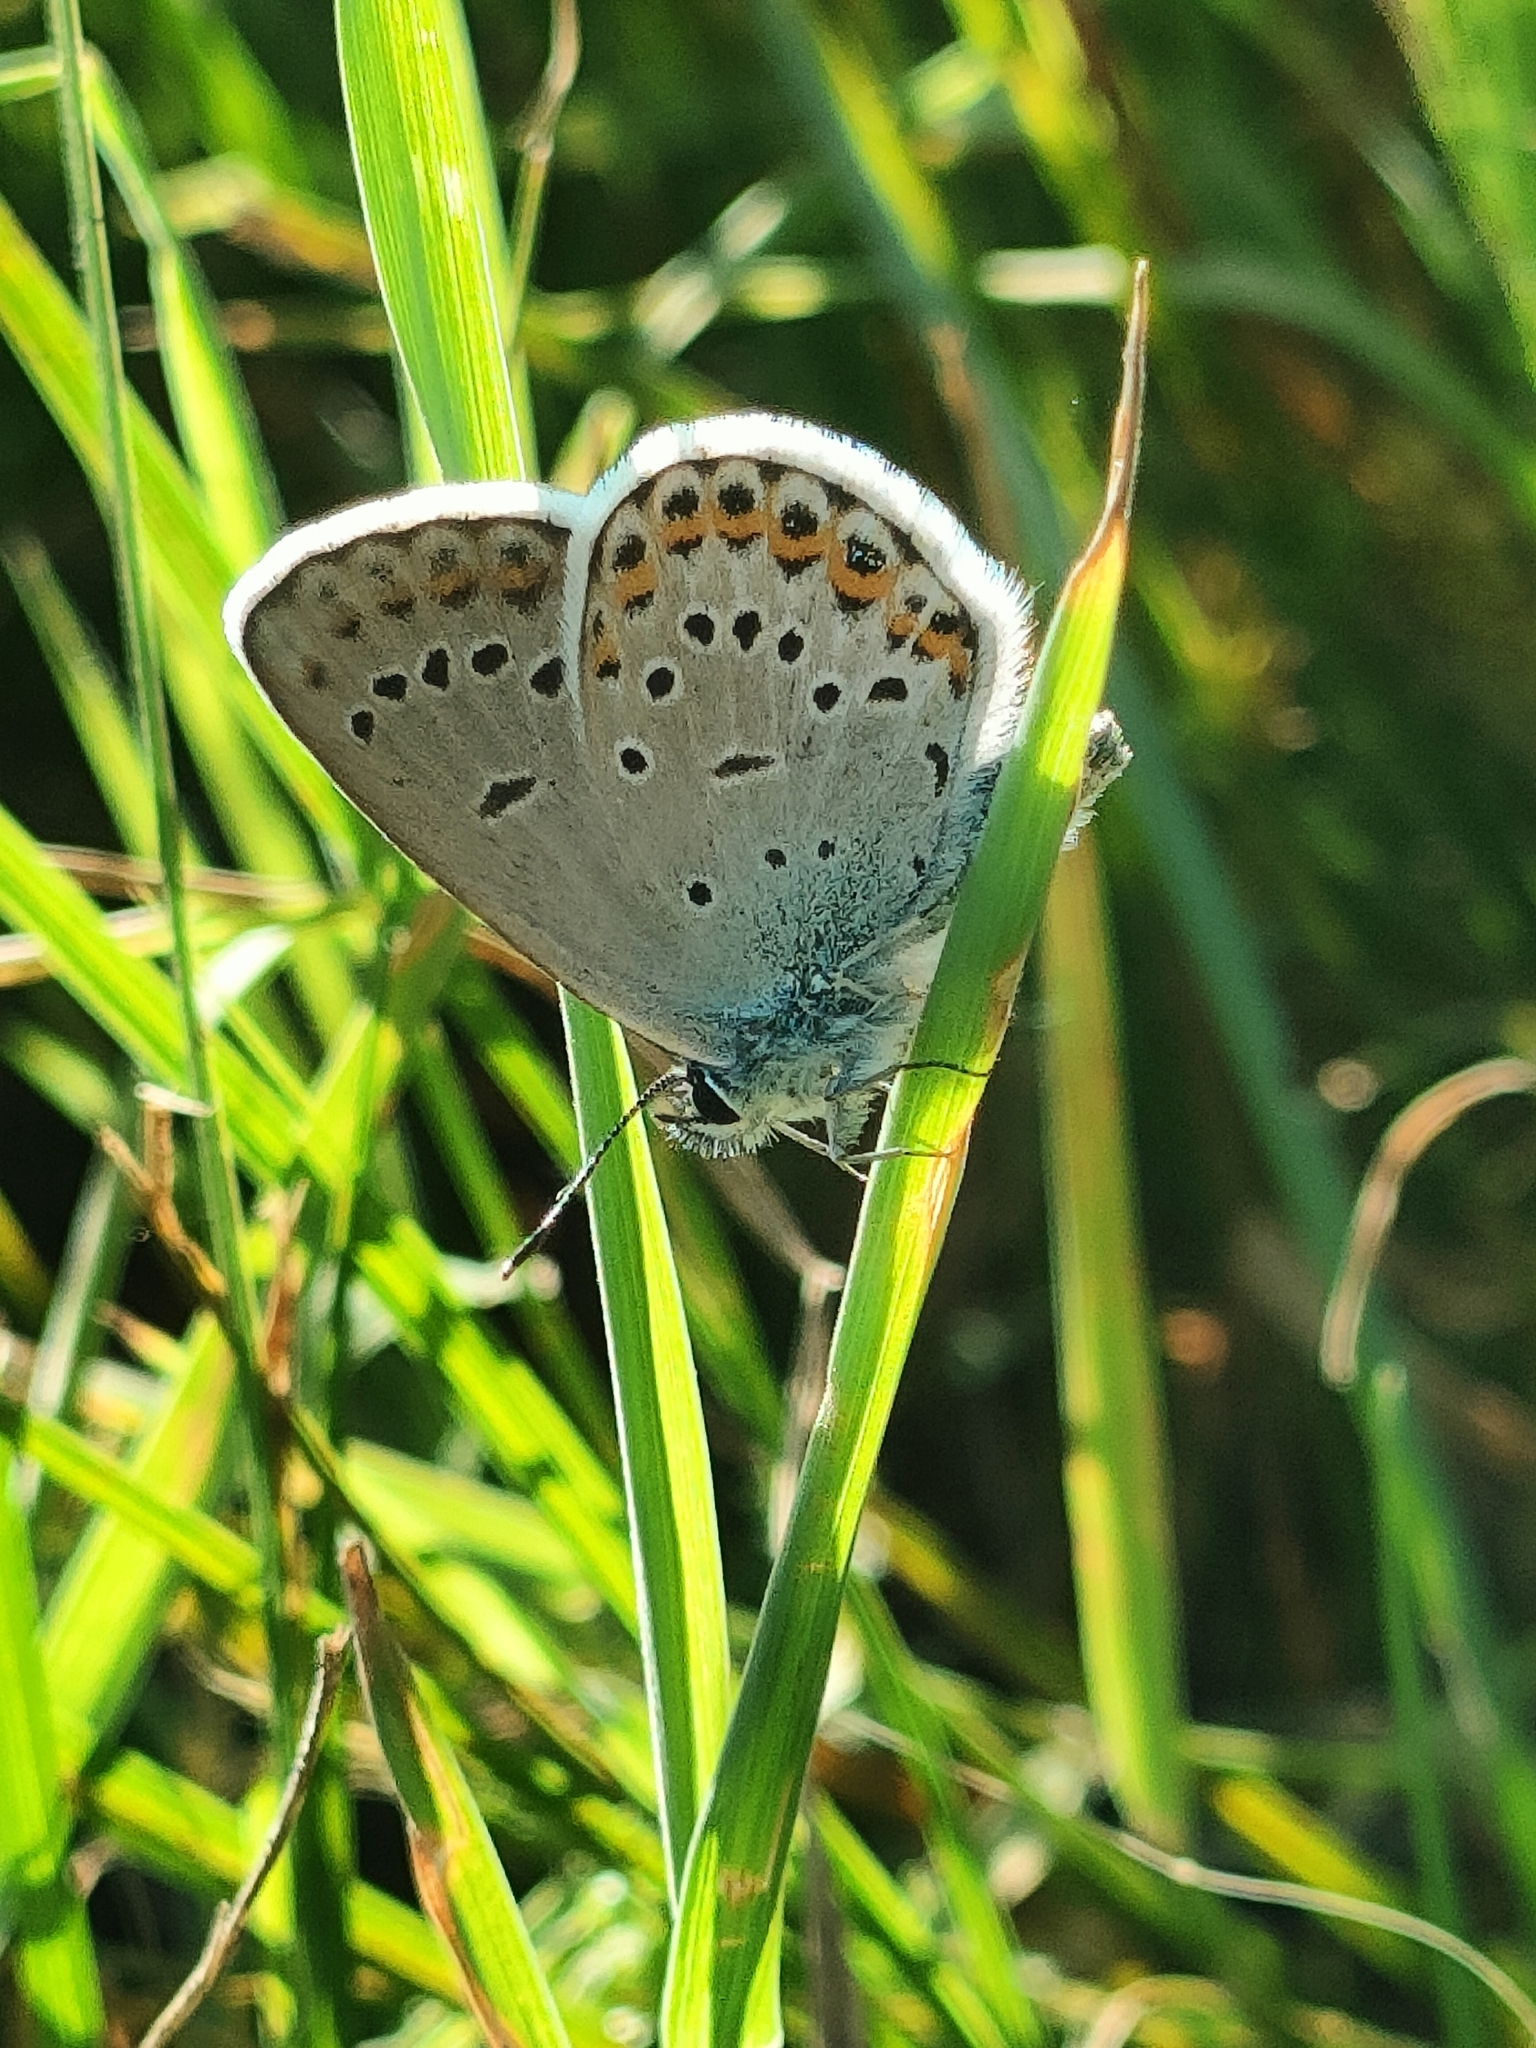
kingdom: Animalia
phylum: Arthropoda
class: Insecta
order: Lepidoptera
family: Lycaenidae
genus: Lycaeides
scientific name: Lycaeides idas
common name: Northern blue
